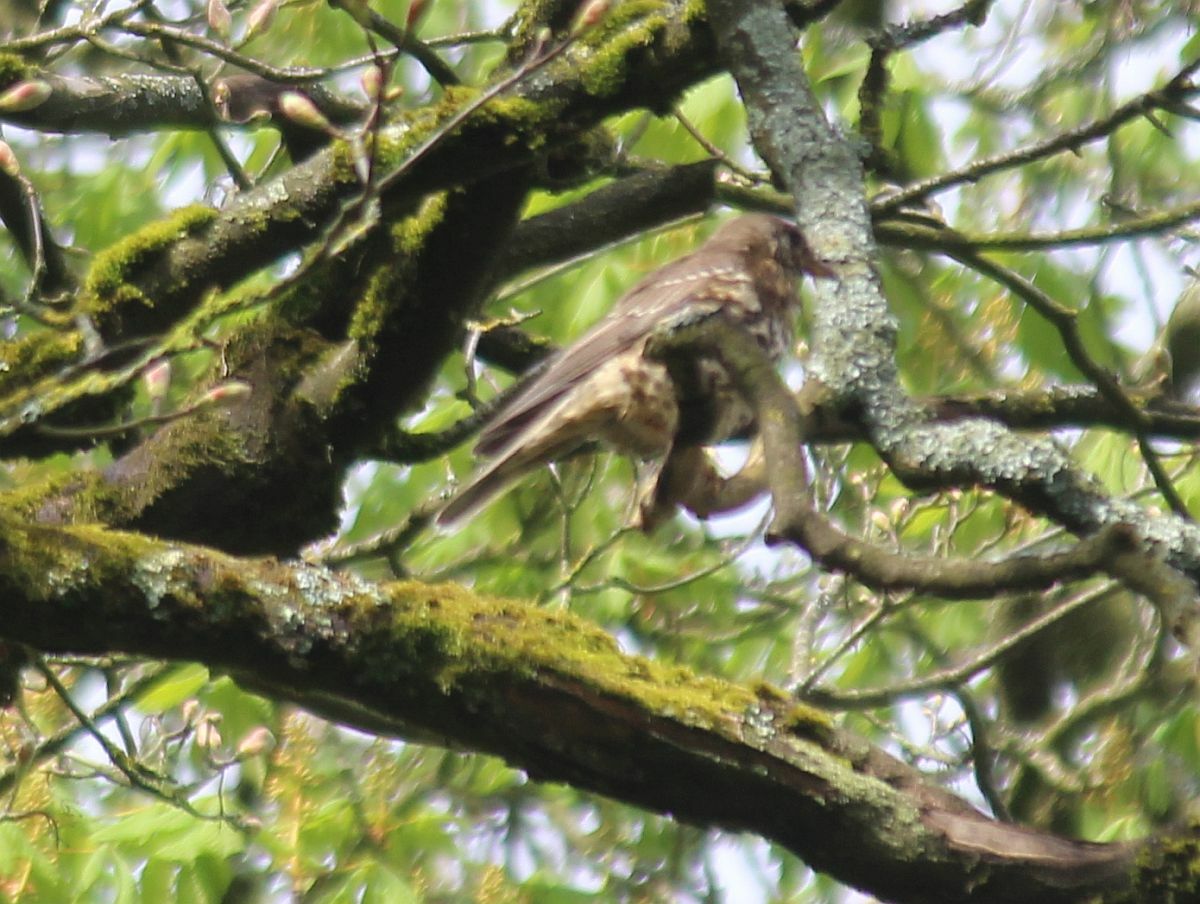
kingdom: Animalia
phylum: Chordata
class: Aves
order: Passeriformes
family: Turdidae
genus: Turdus
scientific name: Turdus viscivorus
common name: Mistle thrush
